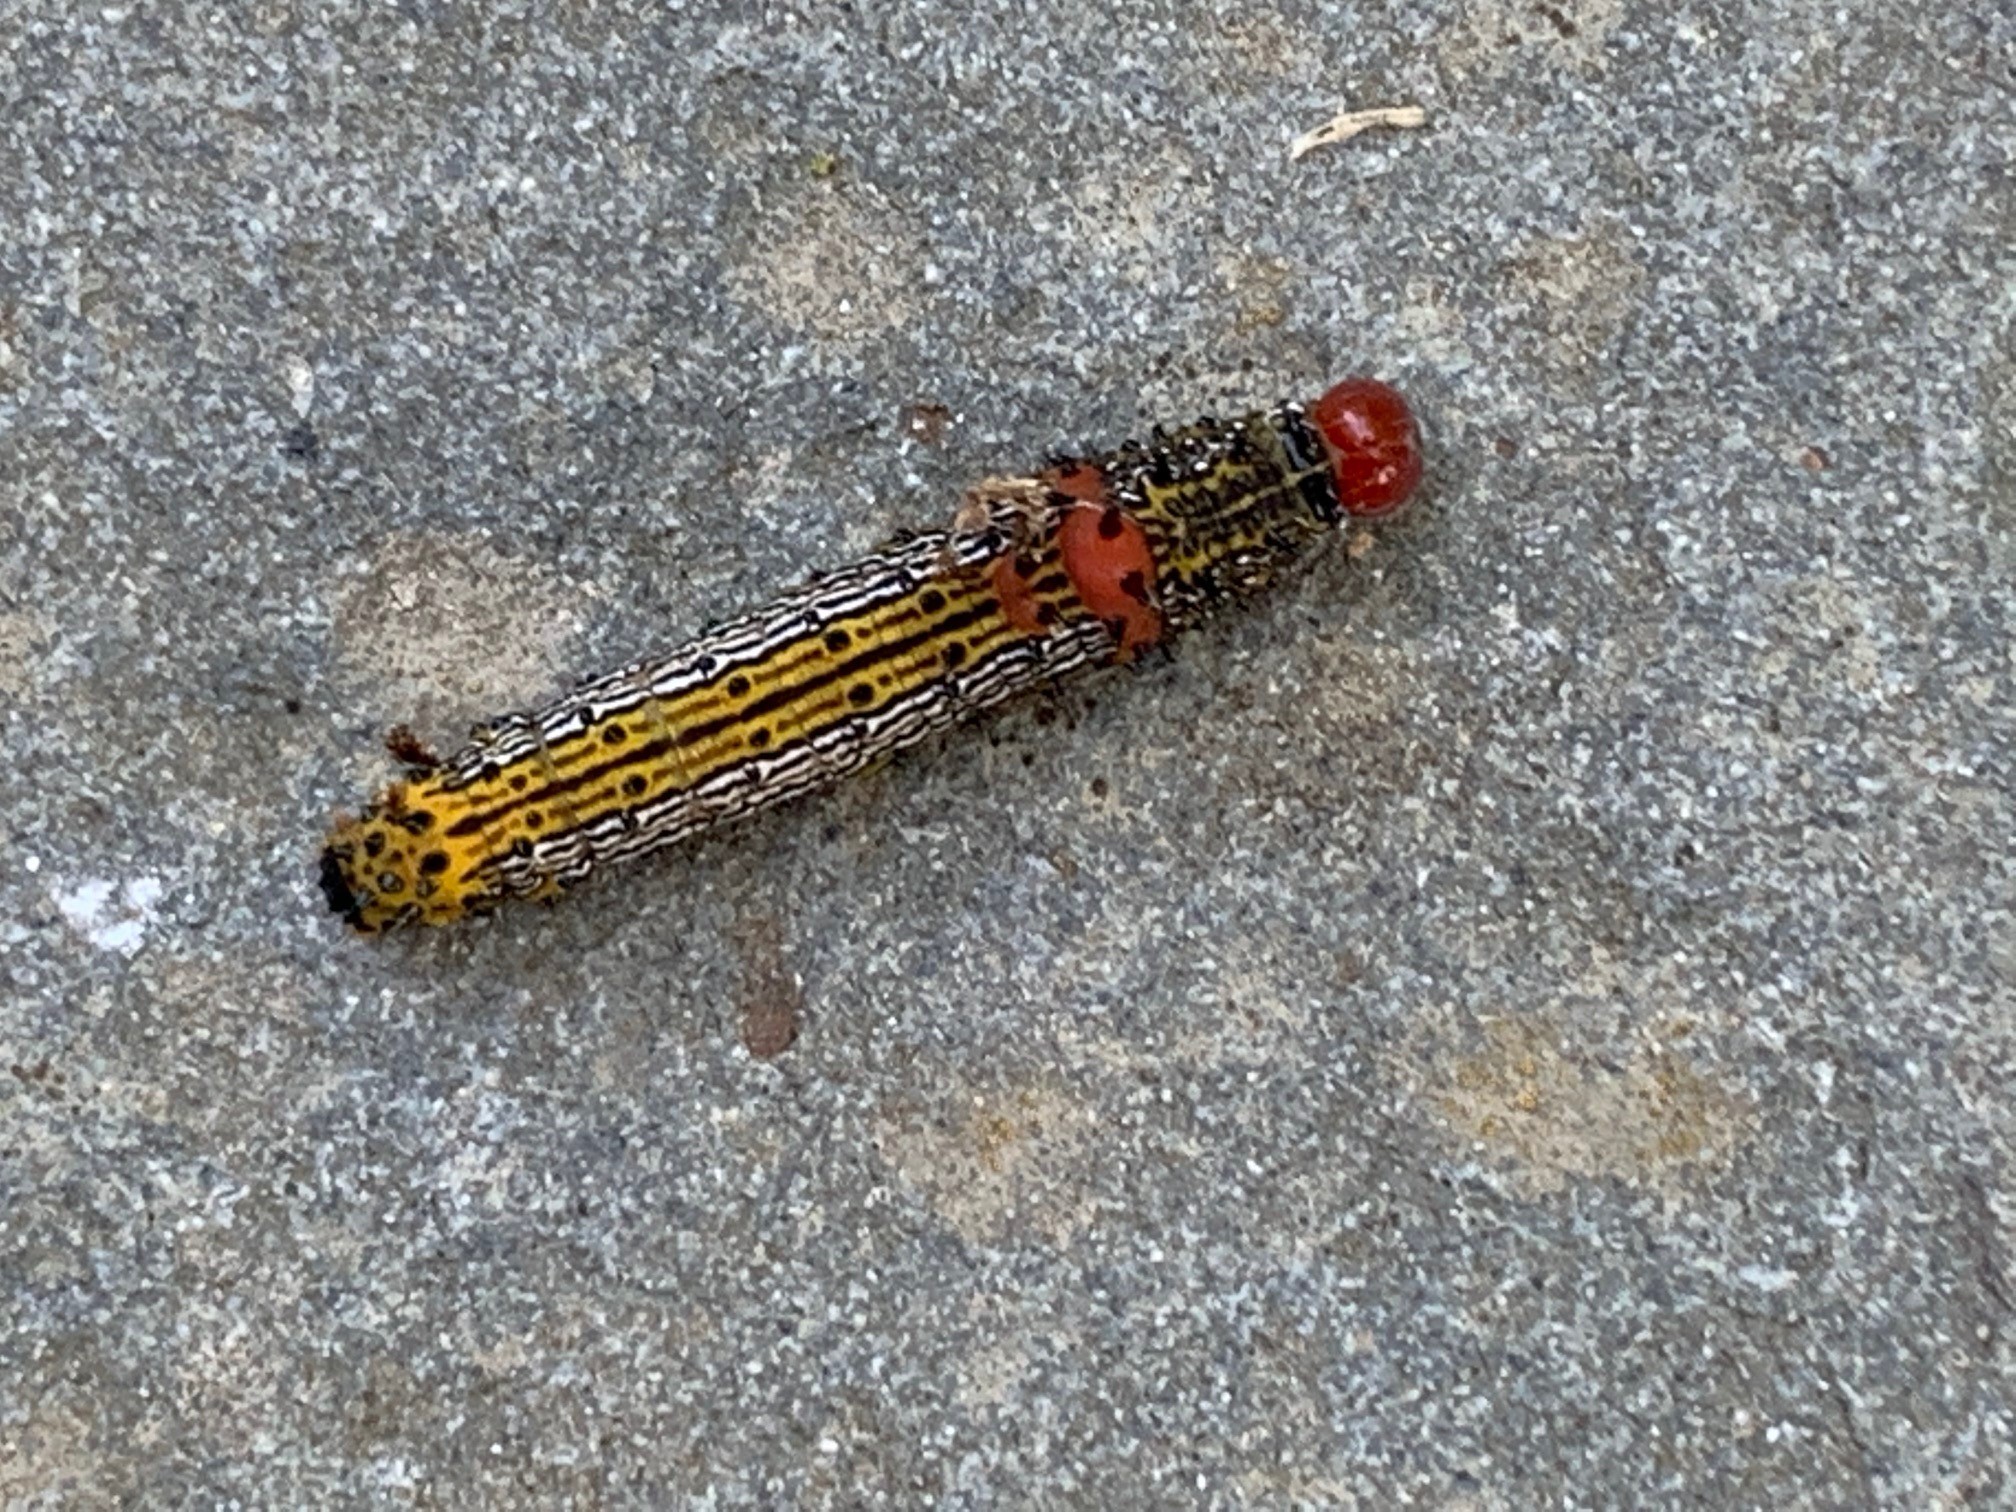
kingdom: Animalia
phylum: Arthropoda
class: Insecta
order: Lepidoptera
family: Notodontidae
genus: Schizura
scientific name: Schizura
